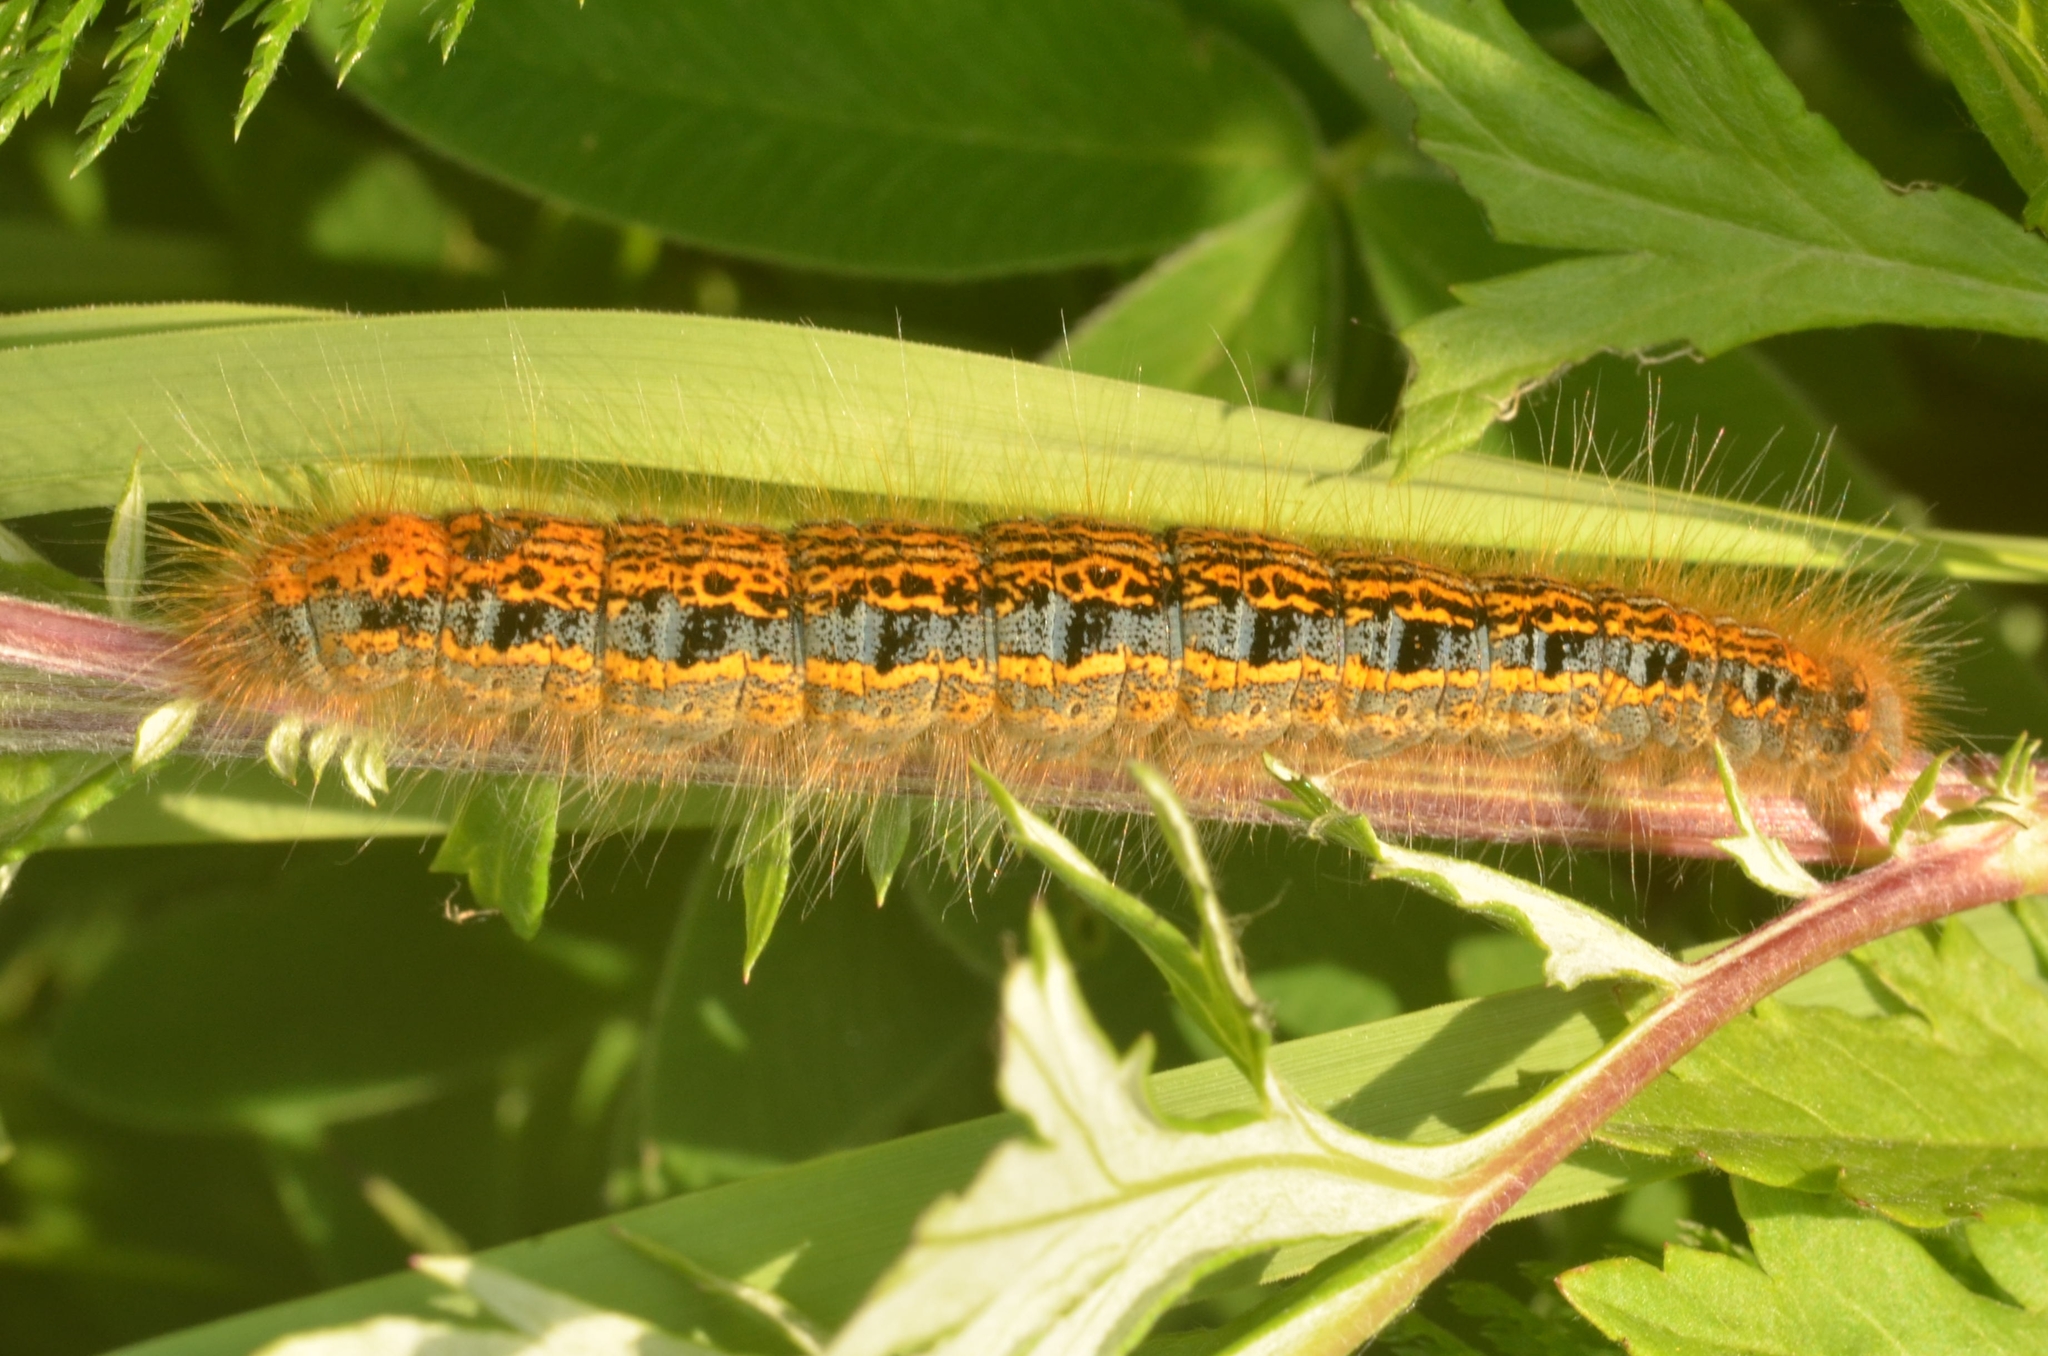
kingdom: Animalia
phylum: Arthropoda
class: Insecta
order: Lepidoptera
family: Lasiocampidae
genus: Malacosoma
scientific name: Malacosoma castrense
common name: Ground lackey
